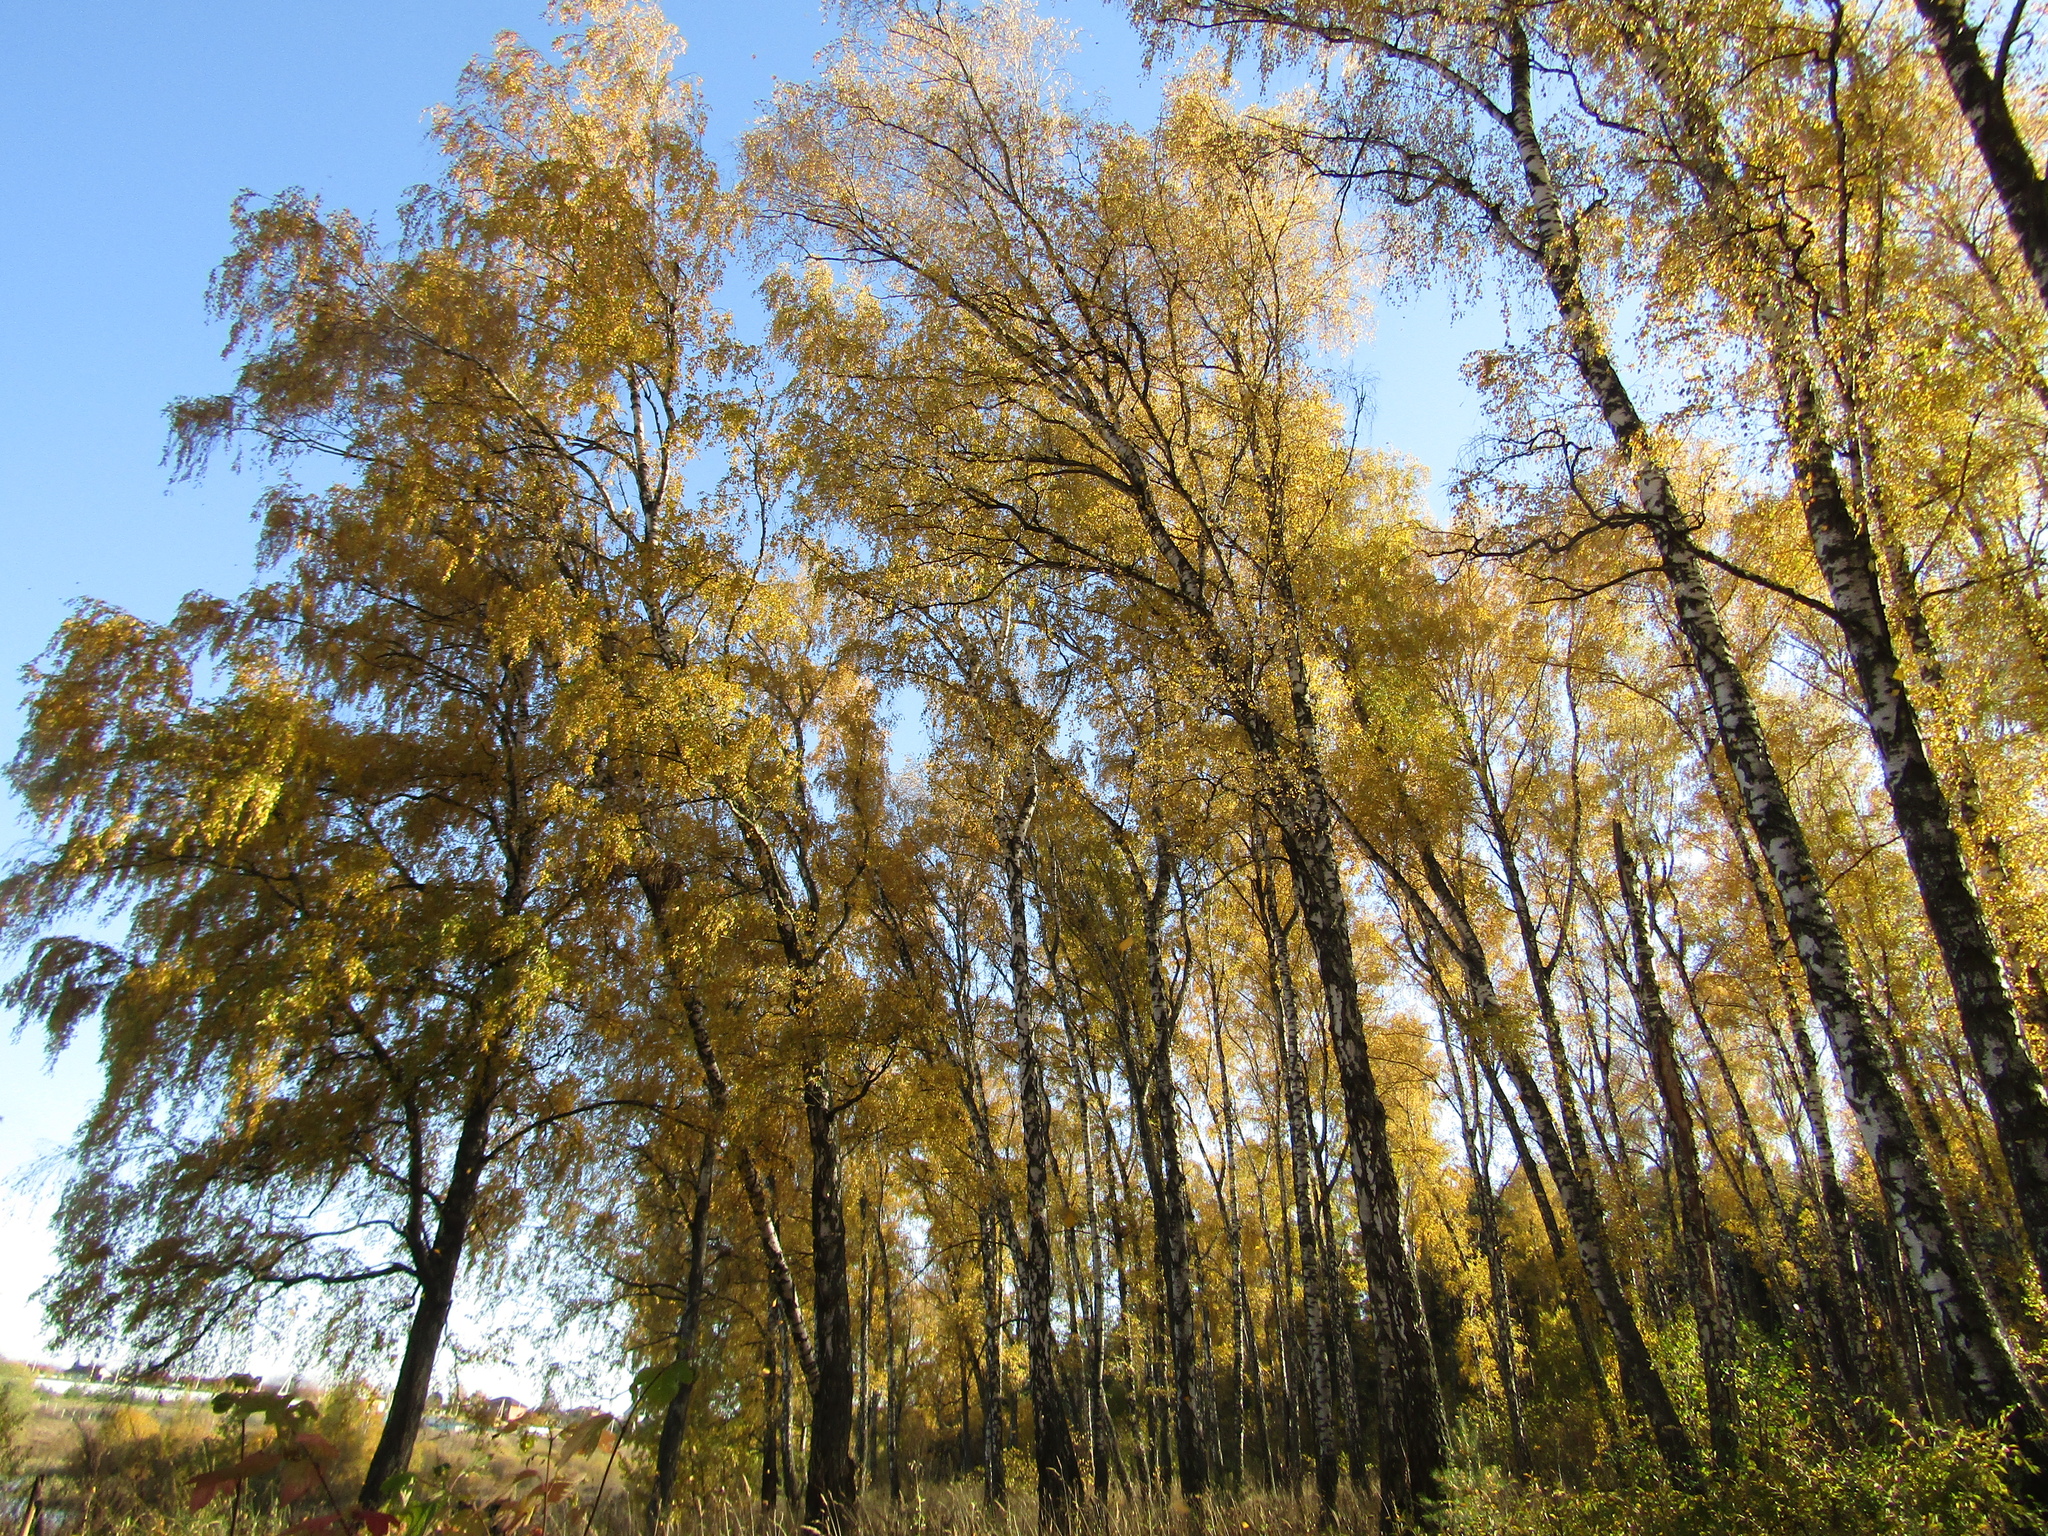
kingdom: Plantae
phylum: Tracheophyta
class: Magnoliopsida
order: Fagales
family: Betulaceae
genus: Betula
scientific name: Betula pendula
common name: Silver birch
